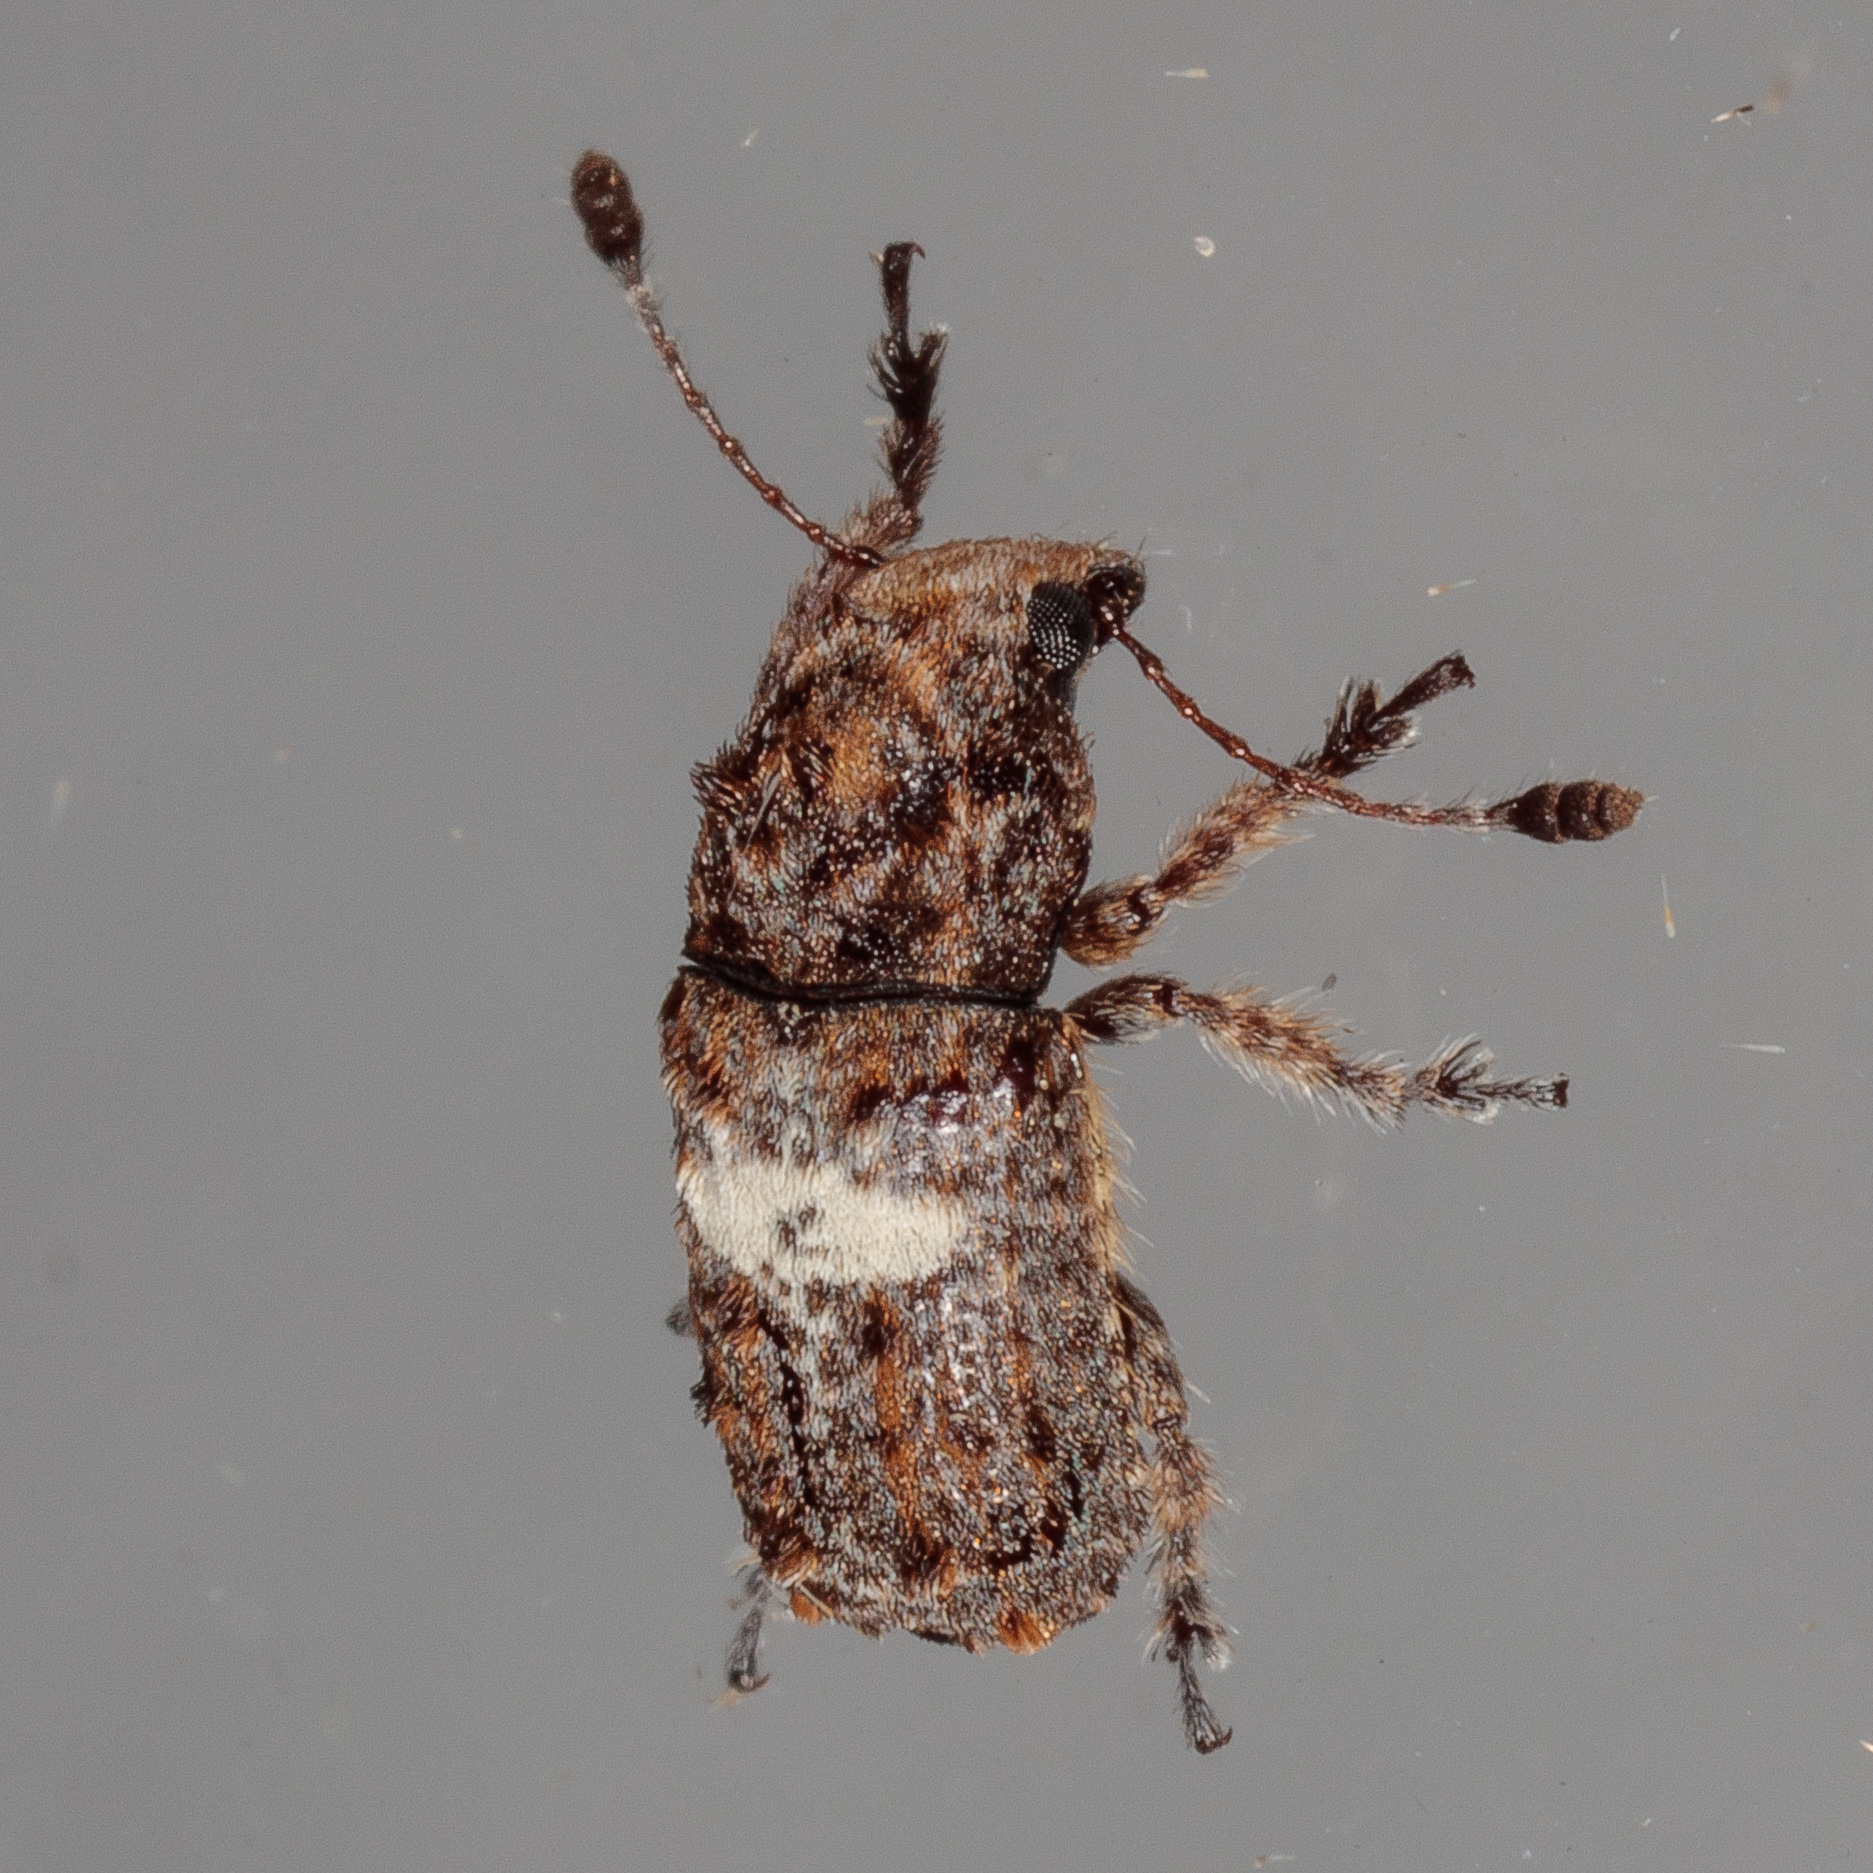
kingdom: Animalia
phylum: Arthropoda
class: Insecta
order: Coleoptera
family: Anthribidae
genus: Toxonotus
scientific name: Toxonotus cornutus
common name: Fungus weevil
